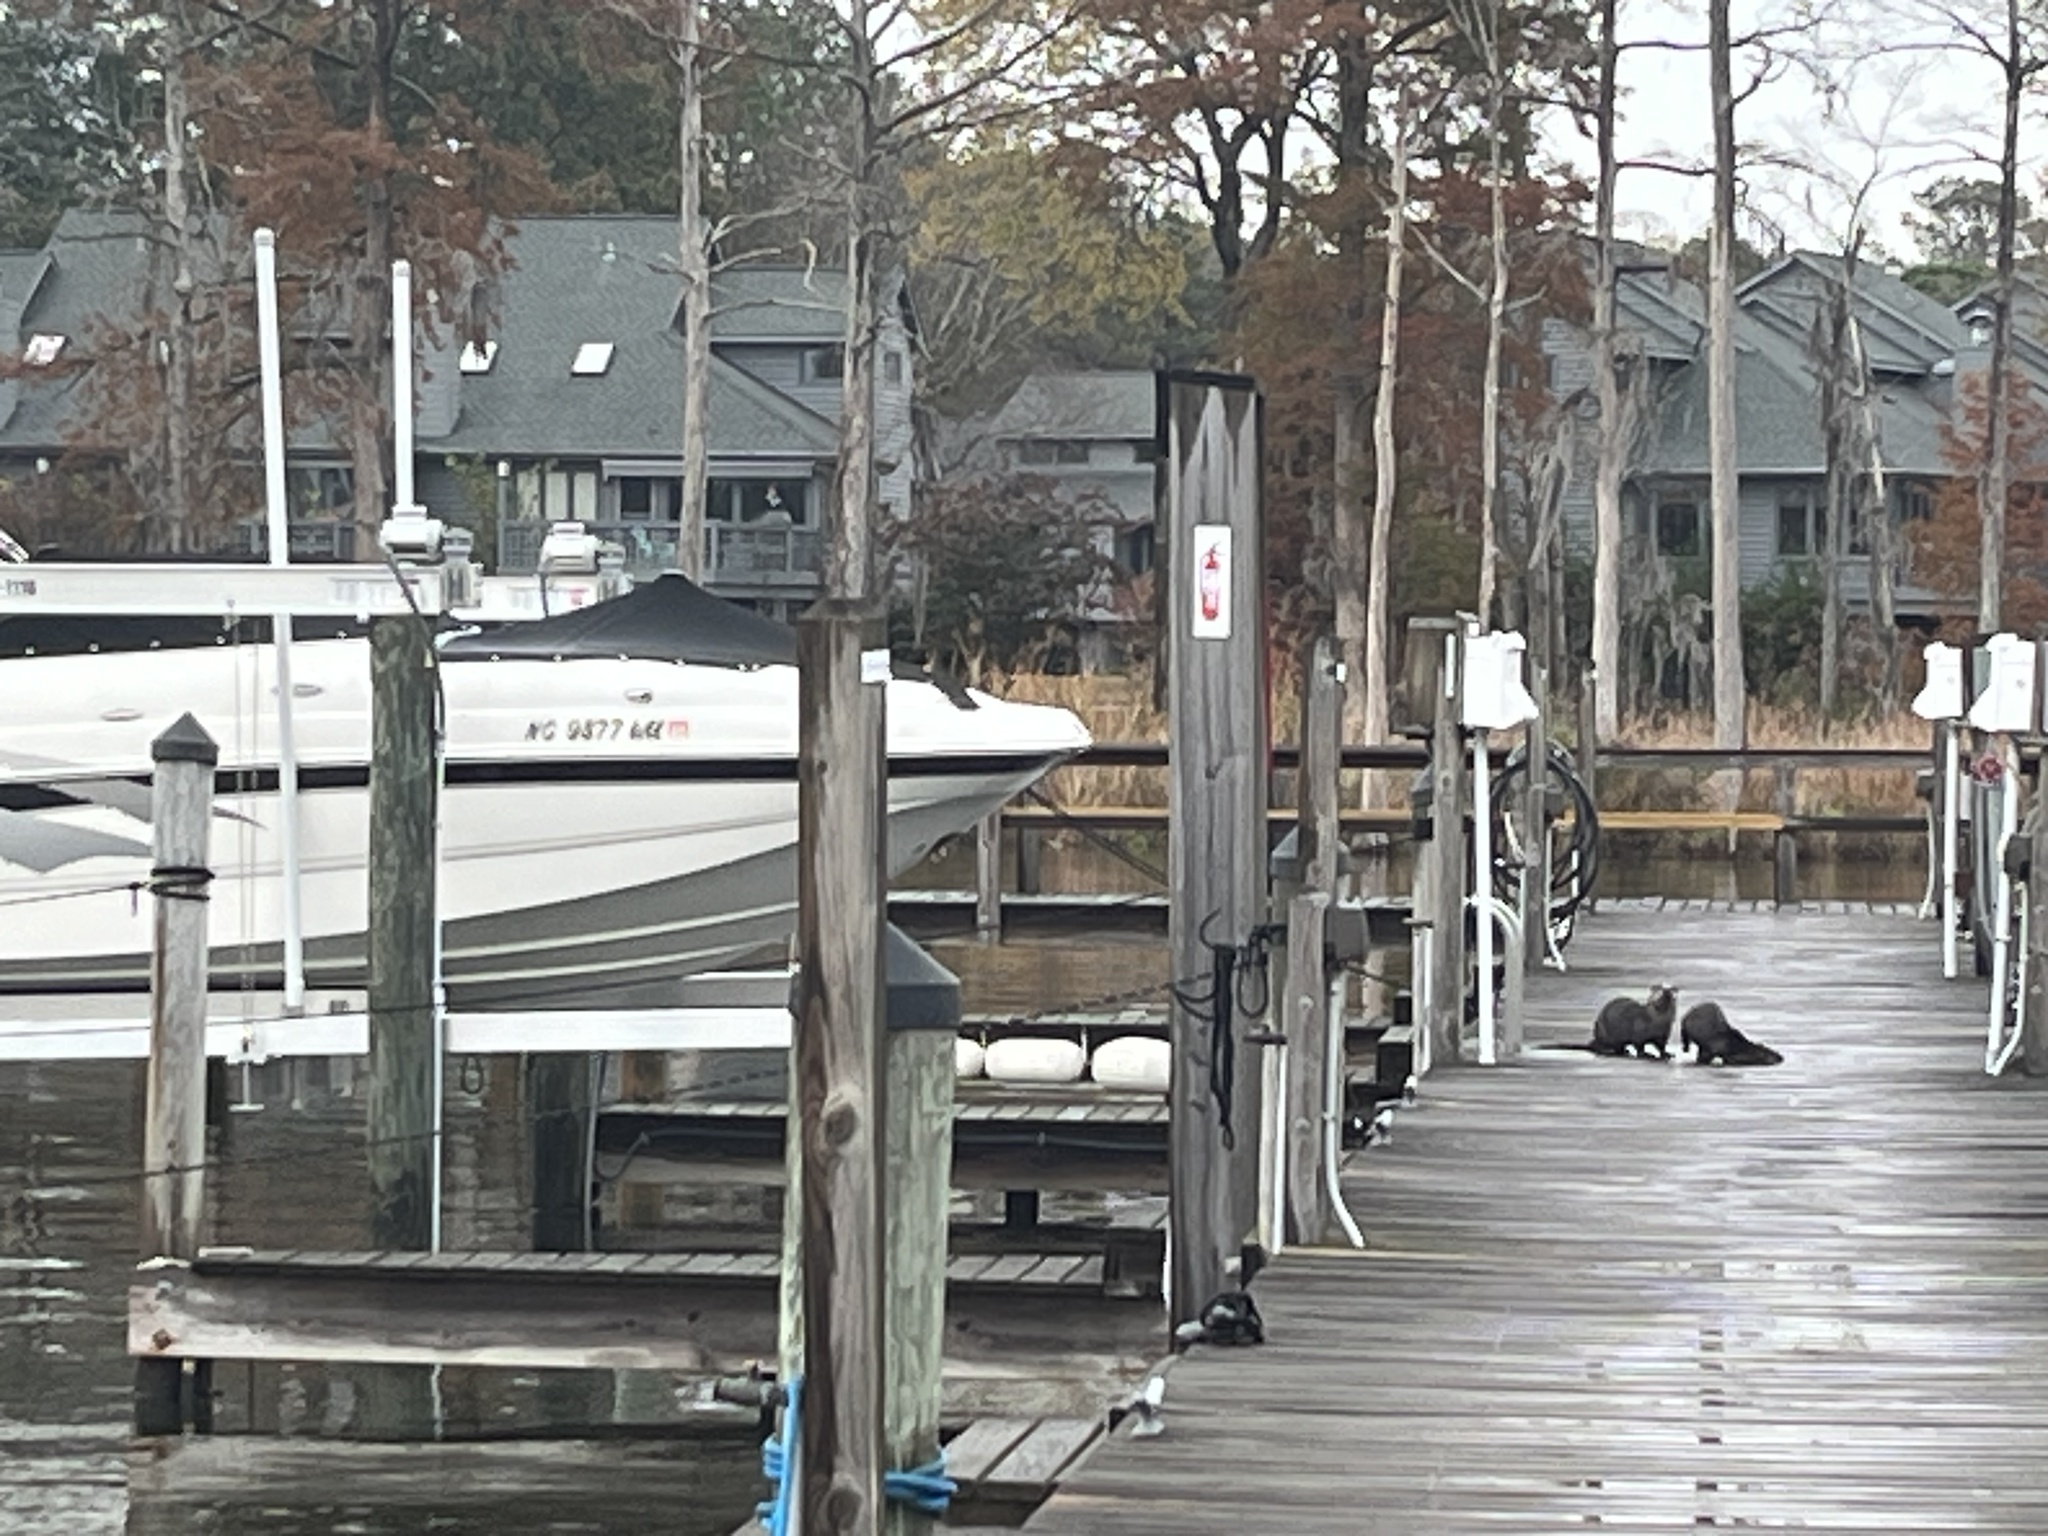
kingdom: Animalia
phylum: Chordata
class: Mammalia
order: Carnivora
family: Mustelidae
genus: Lontra
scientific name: Lontra canadensis
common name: North american river otter
